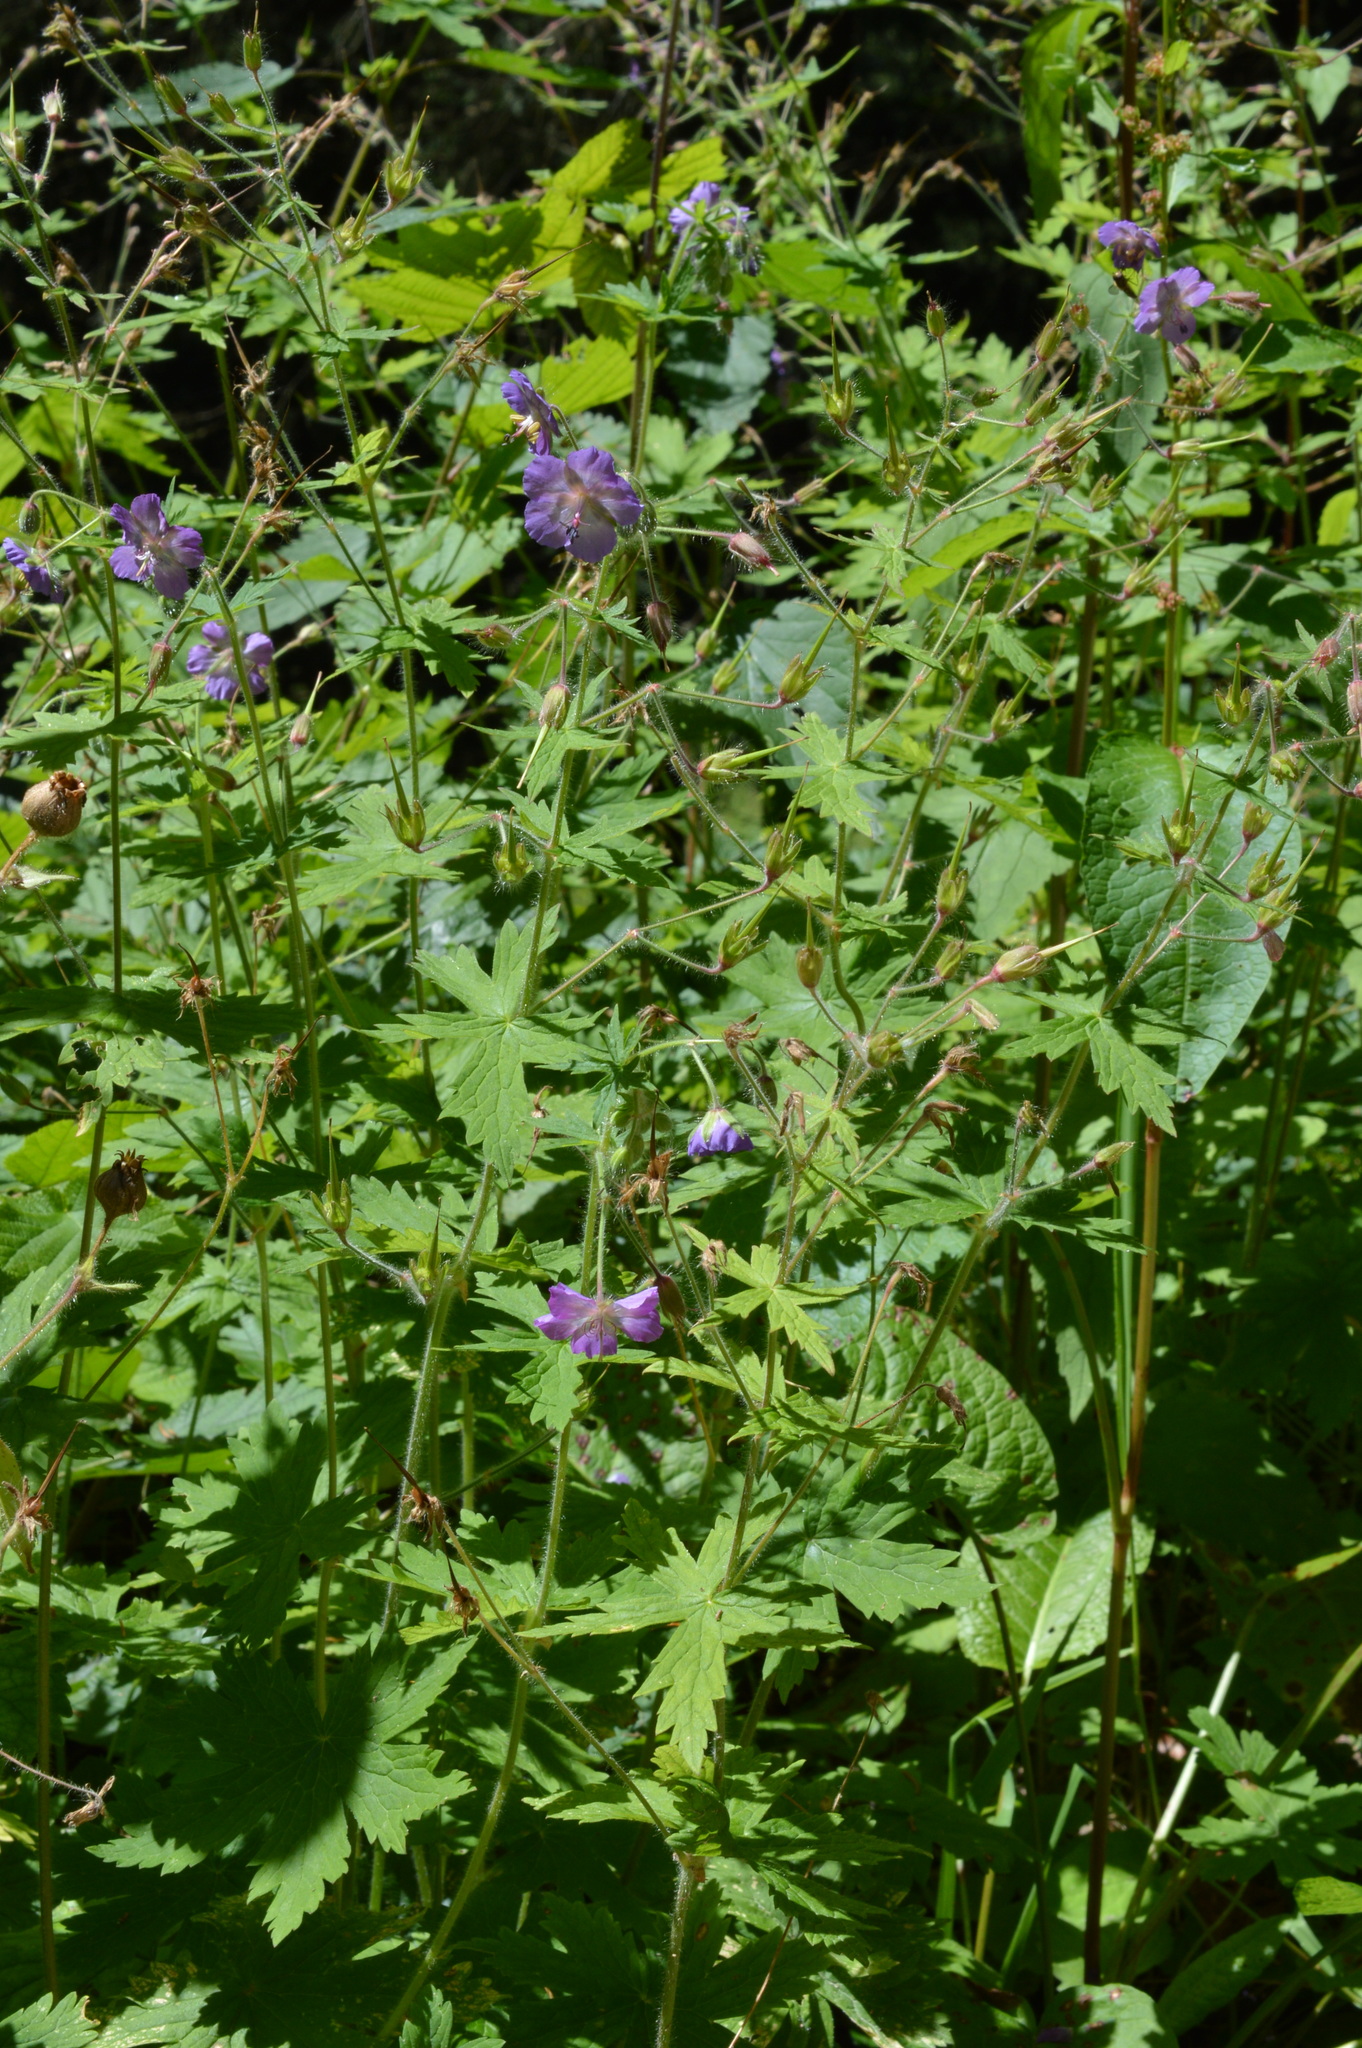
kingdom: Plantae
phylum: Tracheophyta
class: Magnoliopsida
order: Geraniales
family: Geraniaceae
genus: Geranium
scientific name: Geranium phaeum
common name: Dusky crane's-bill
